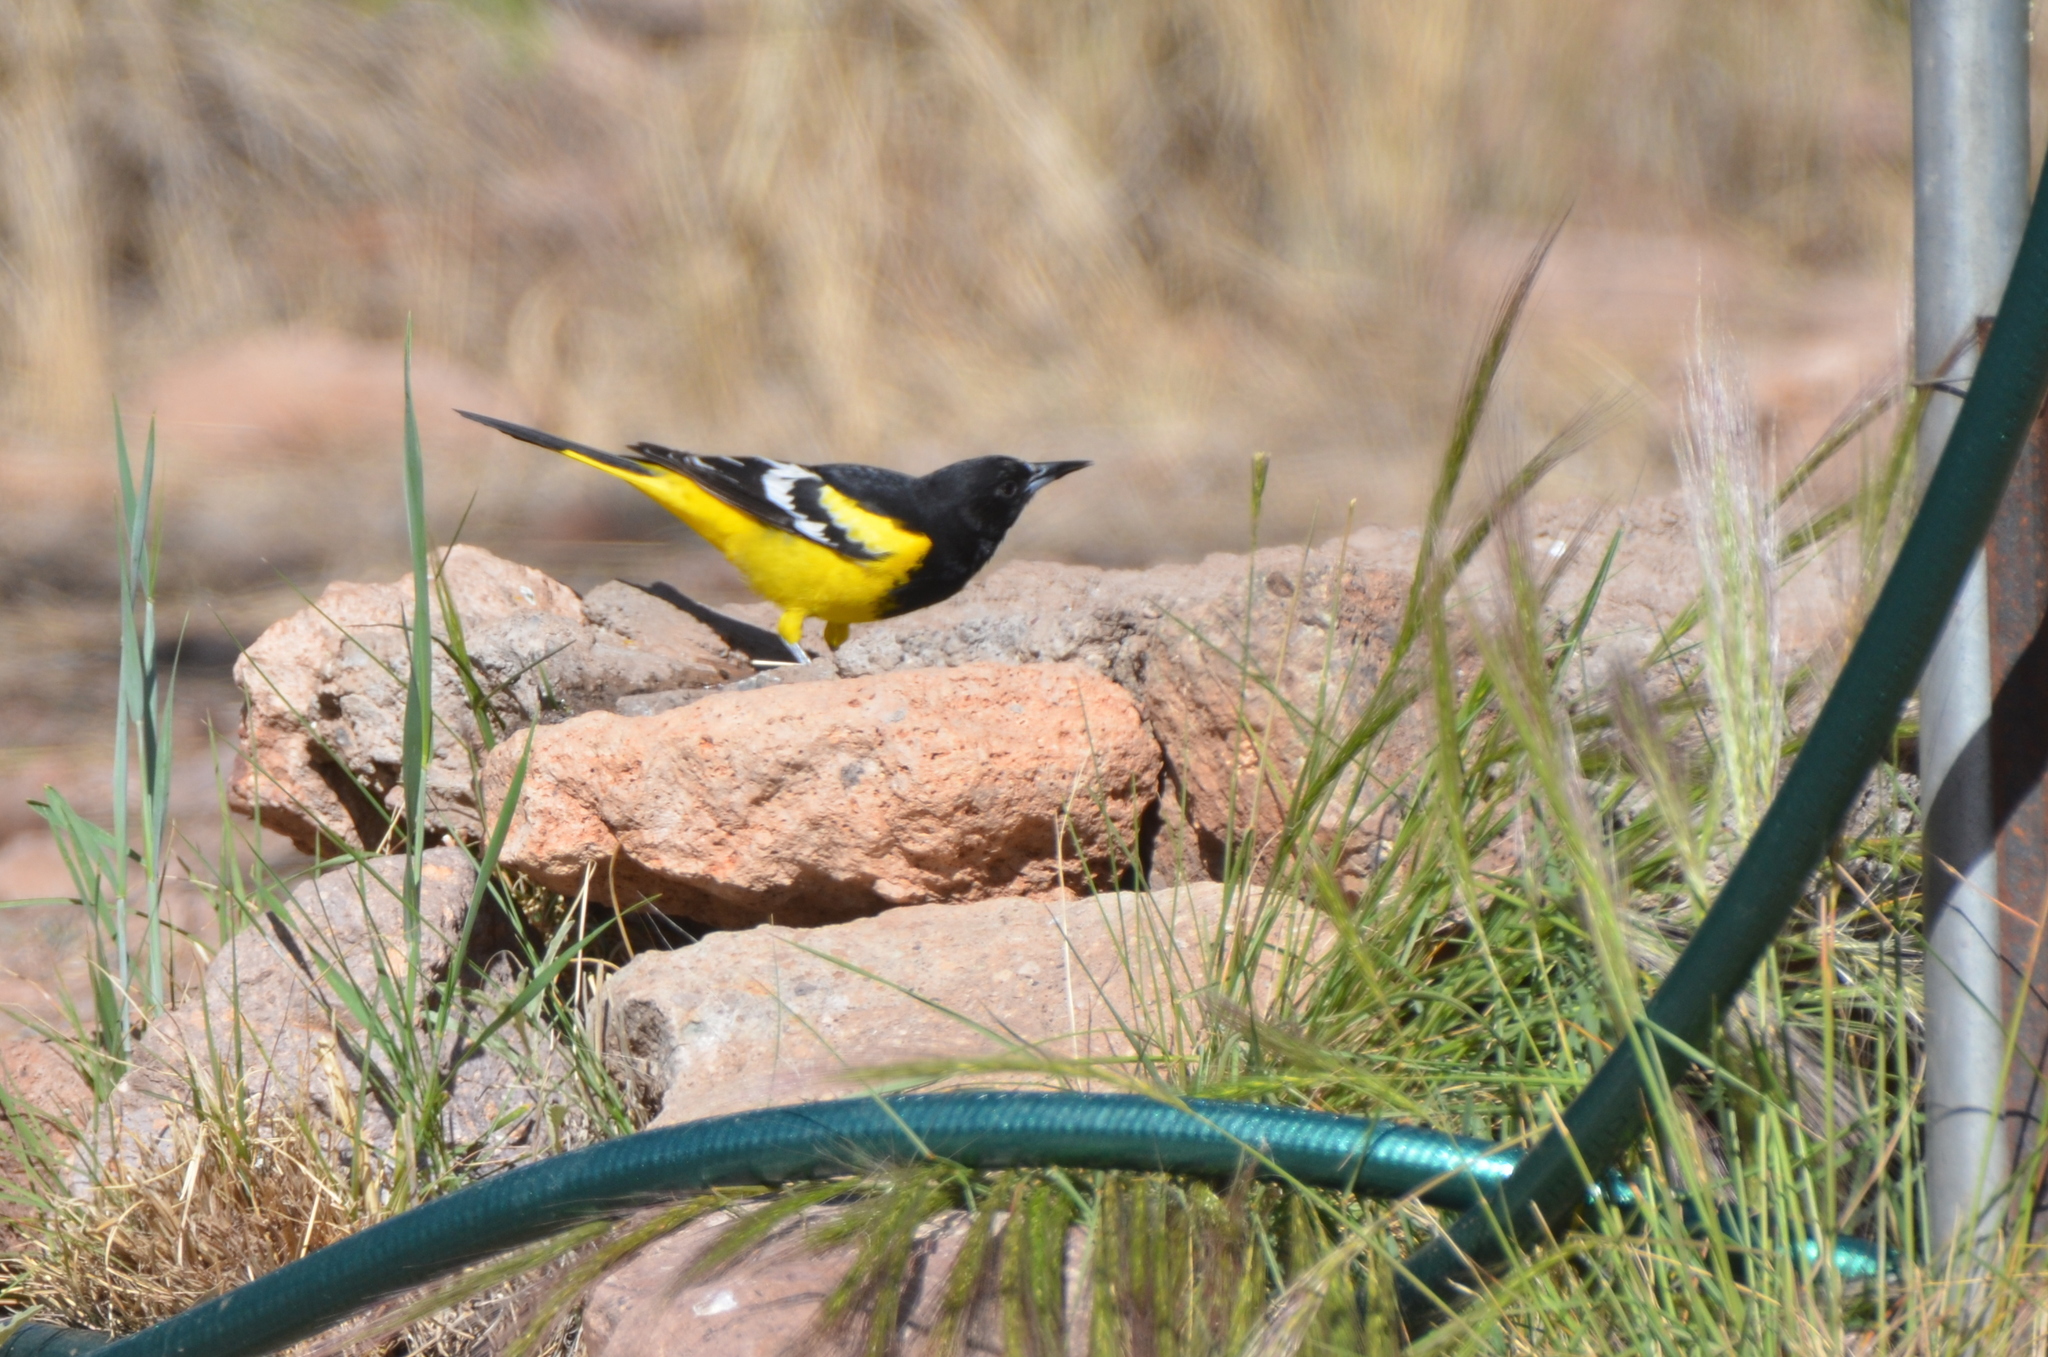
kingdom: Animalia
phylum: Chordata
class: Aves
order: Passeriformes
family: Icteridae
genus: Icterus
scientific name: Icterus parisorum
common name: Scott's oriole
